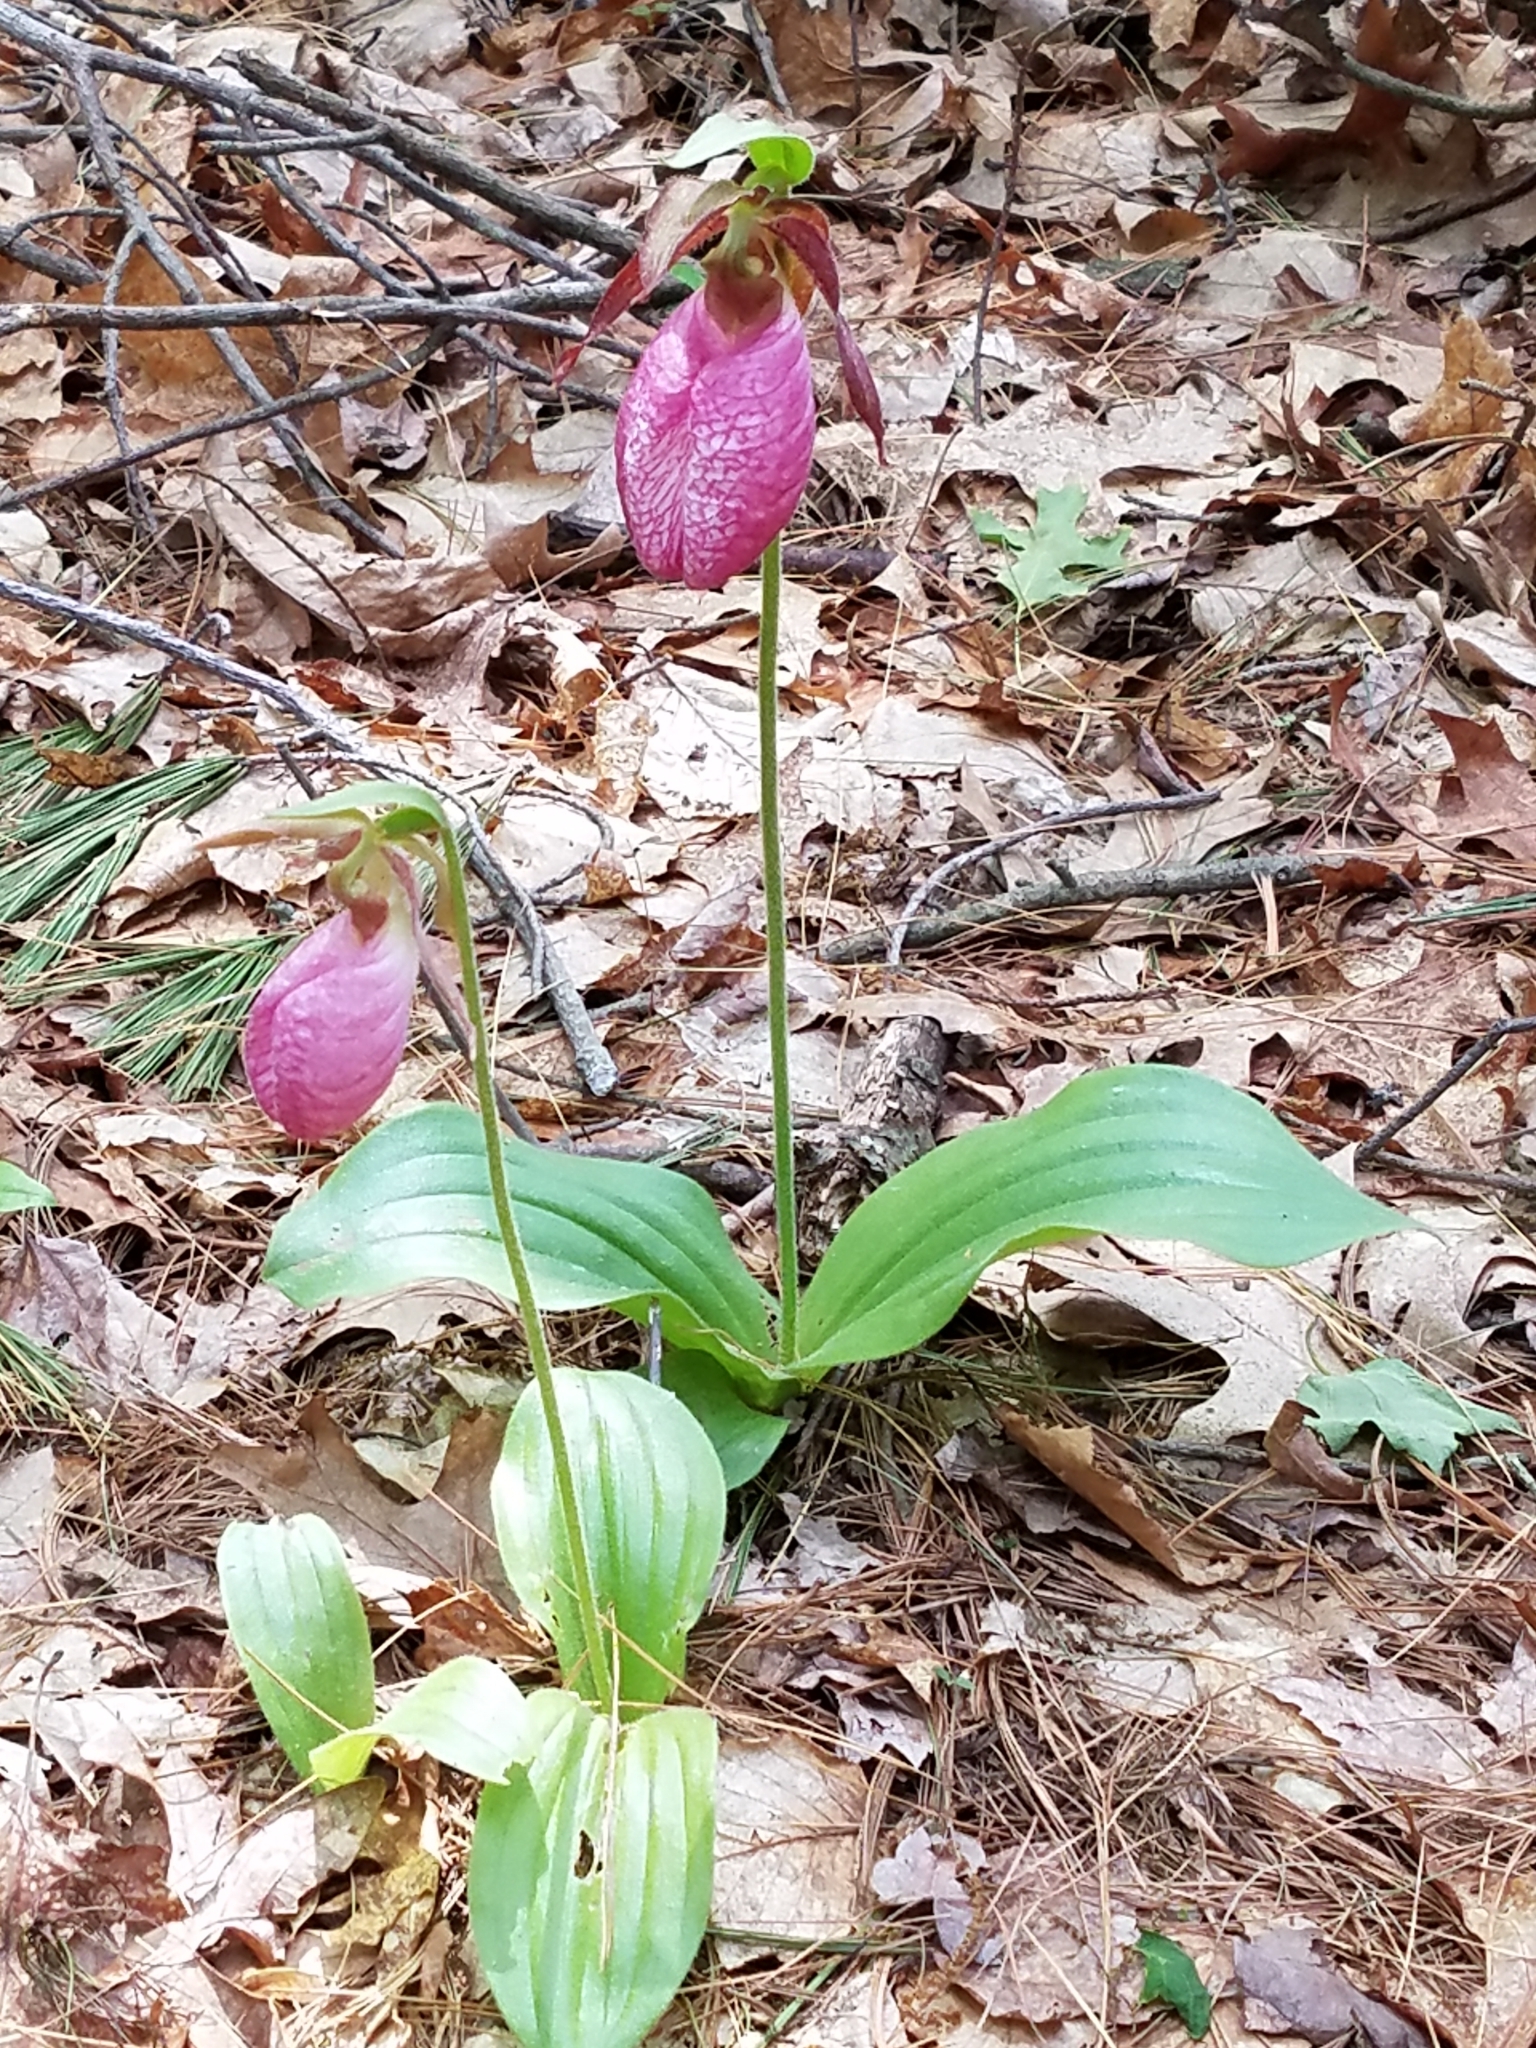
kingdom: Plantae
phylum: Tracheophyta
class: Liliopsida
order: Asparagales
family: Orchidaceae
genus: Cypripedium
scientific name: Cypripedium acaule
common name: Pink lady's-slipper
